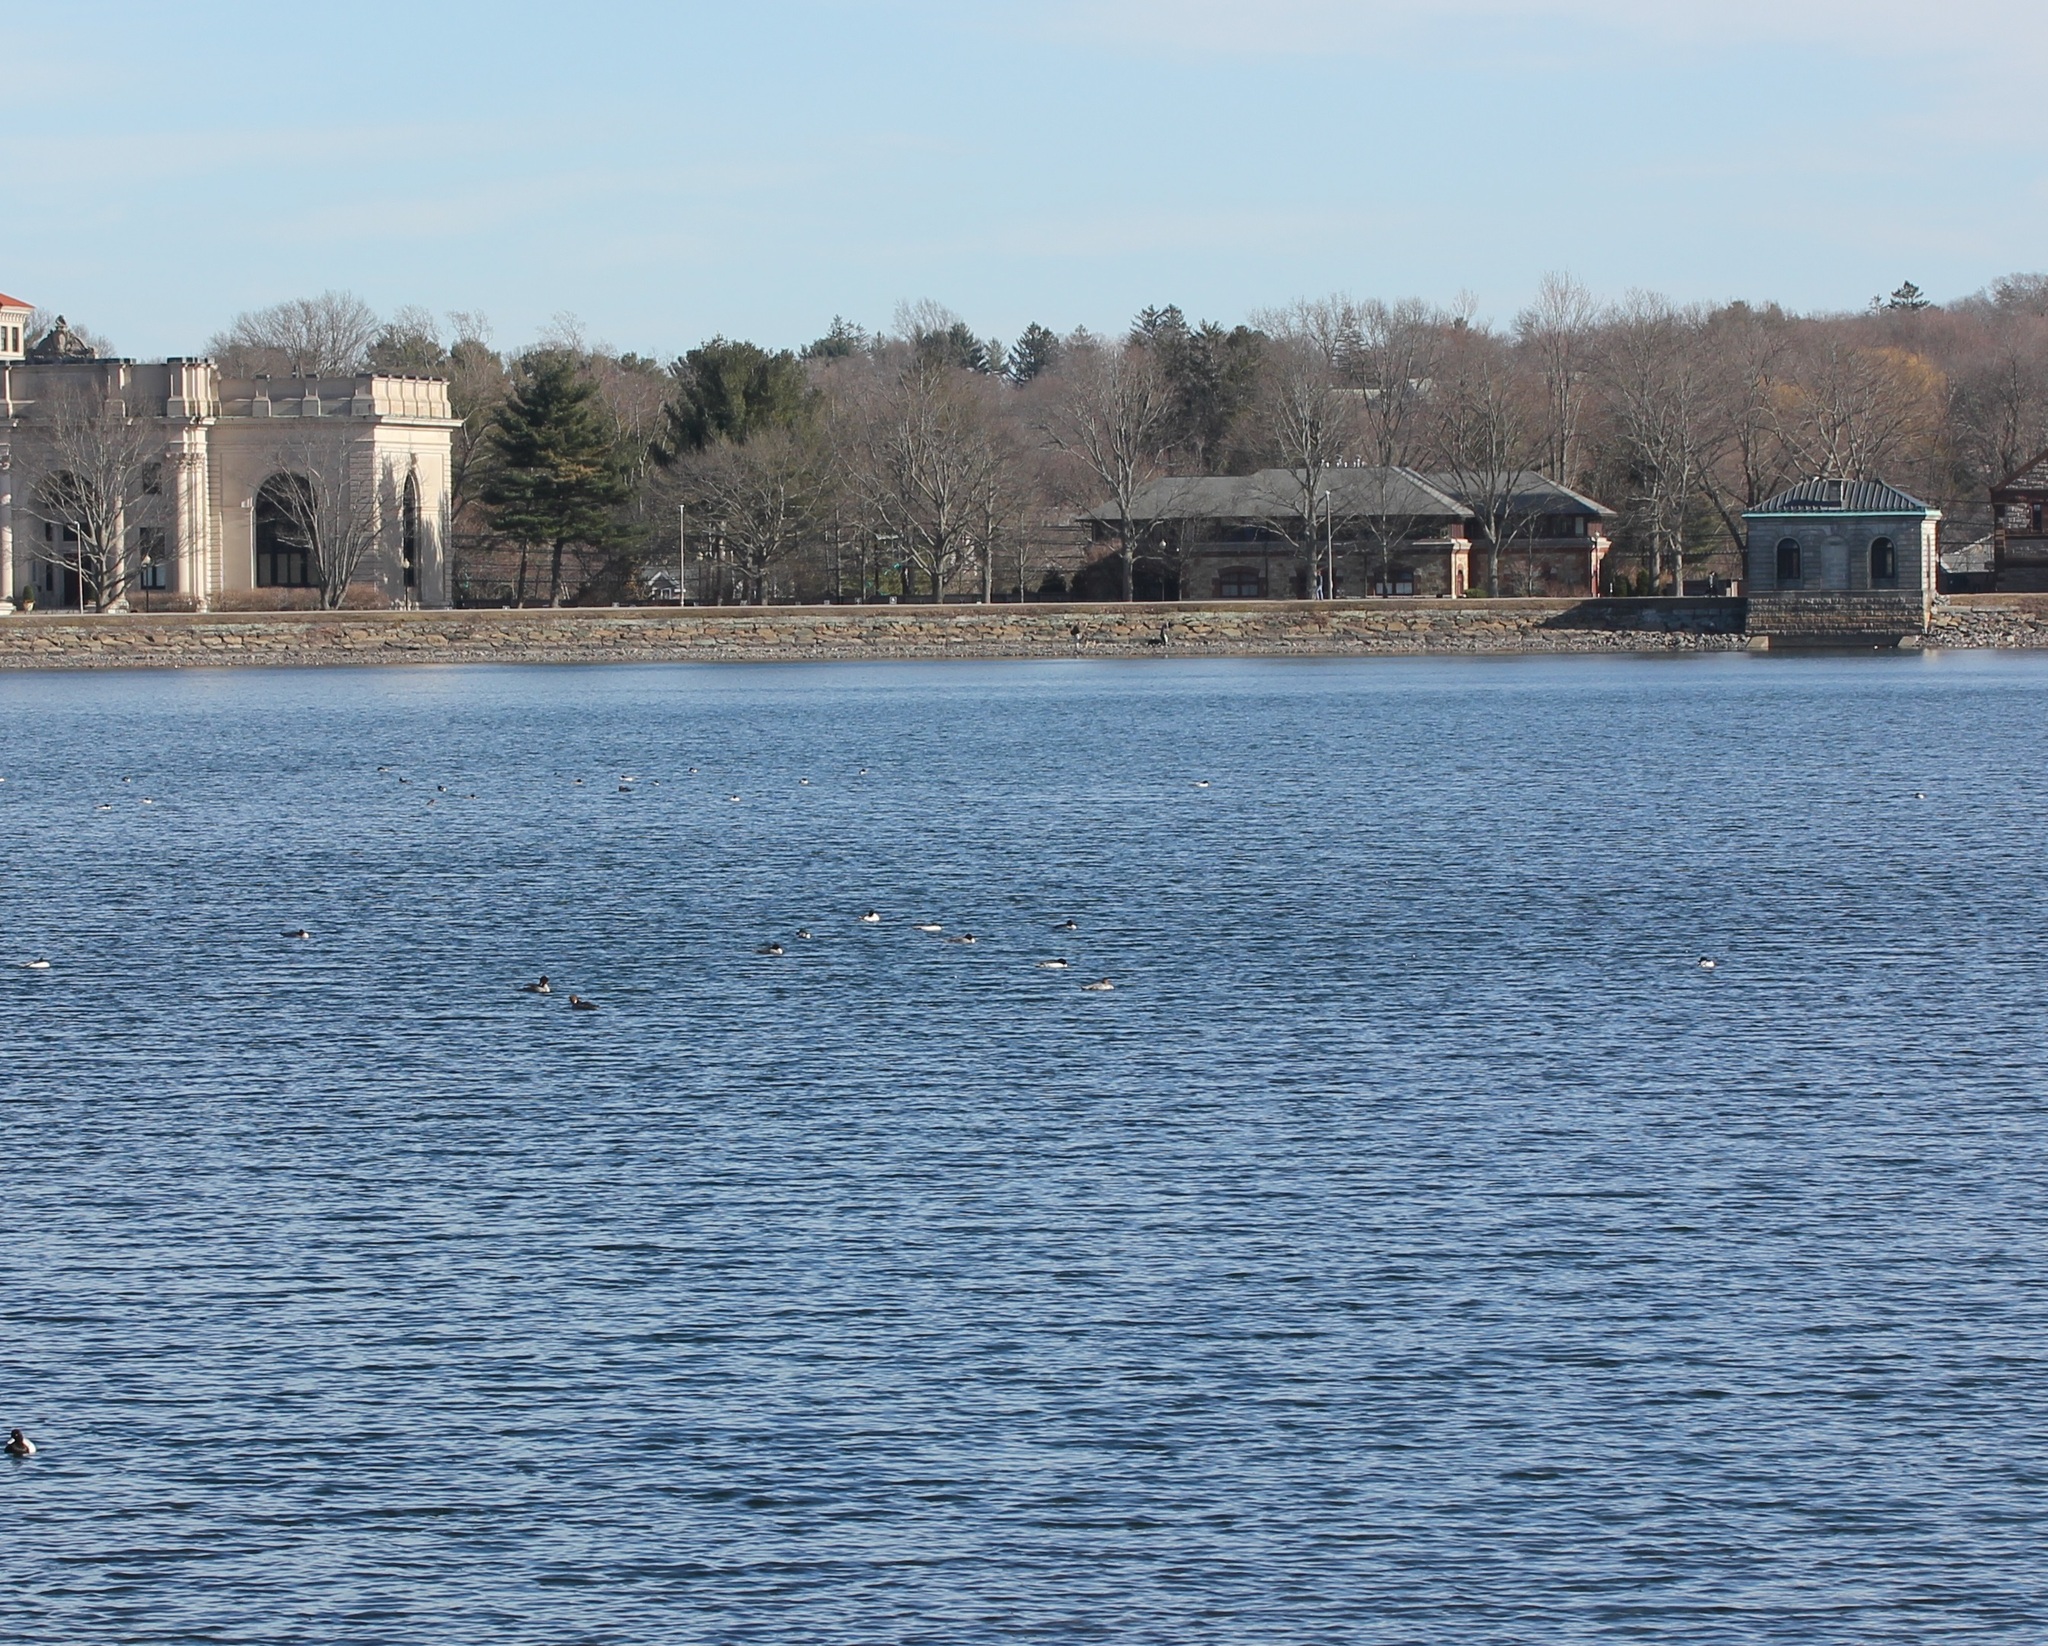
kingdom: Animalia
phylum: Chordata
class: Aves
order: Anseriformes
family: Anatidae
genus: Mergus
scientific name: Mergus merganser
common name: Common merganser
